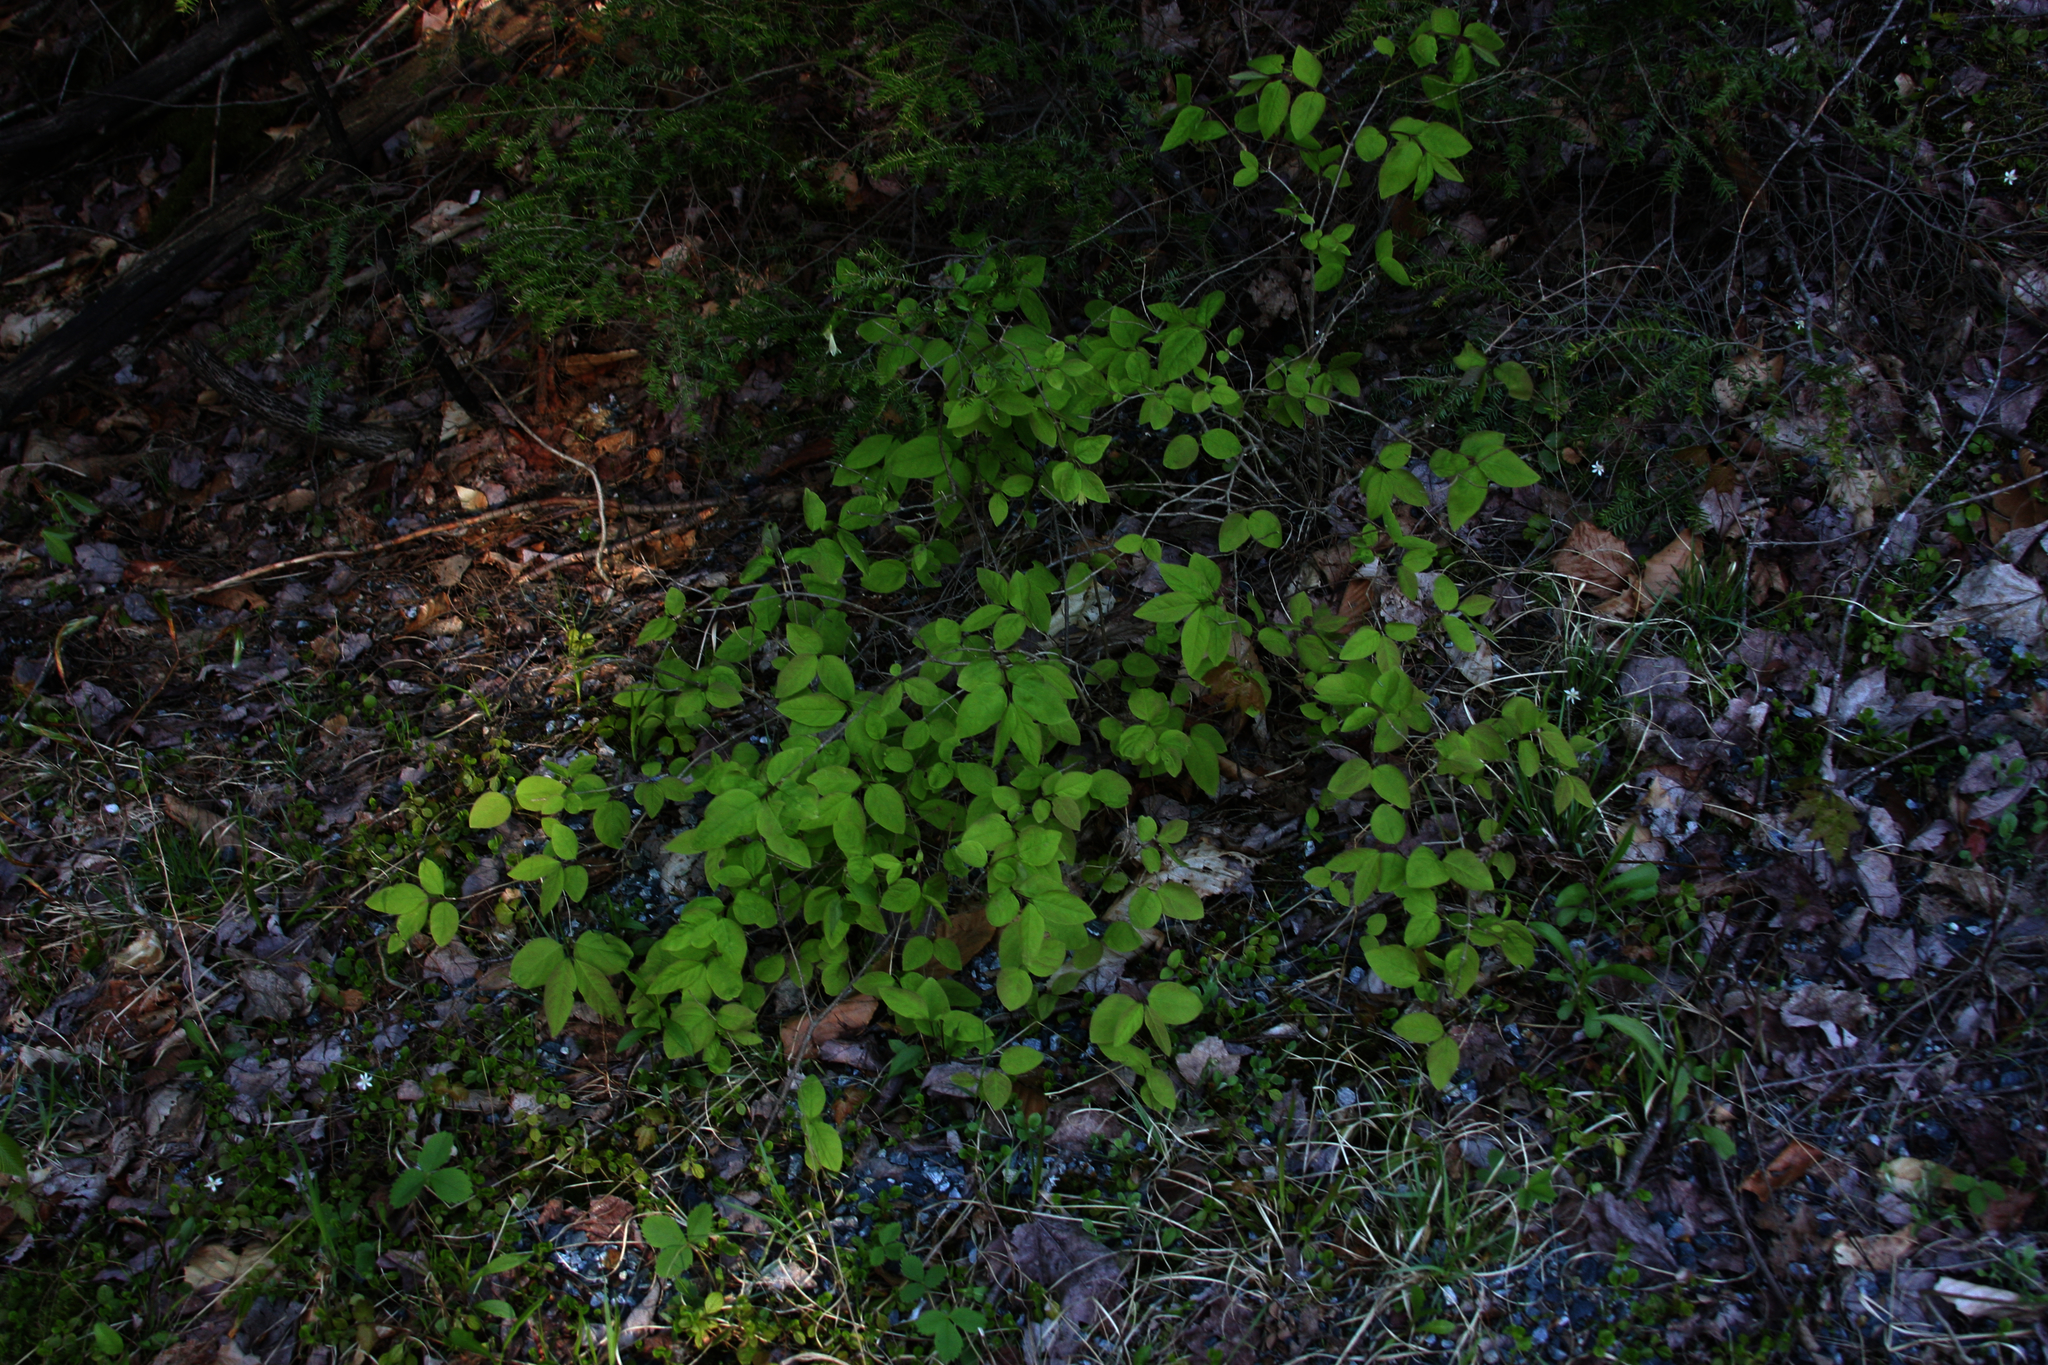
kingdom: Plantae
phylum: Tracheophyta
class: Magnoliopsida
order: Dipsacales
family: Caprifoliaceae
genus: Lonicera
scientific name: Lonicera canadensis
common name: American fly-honeysuckle
